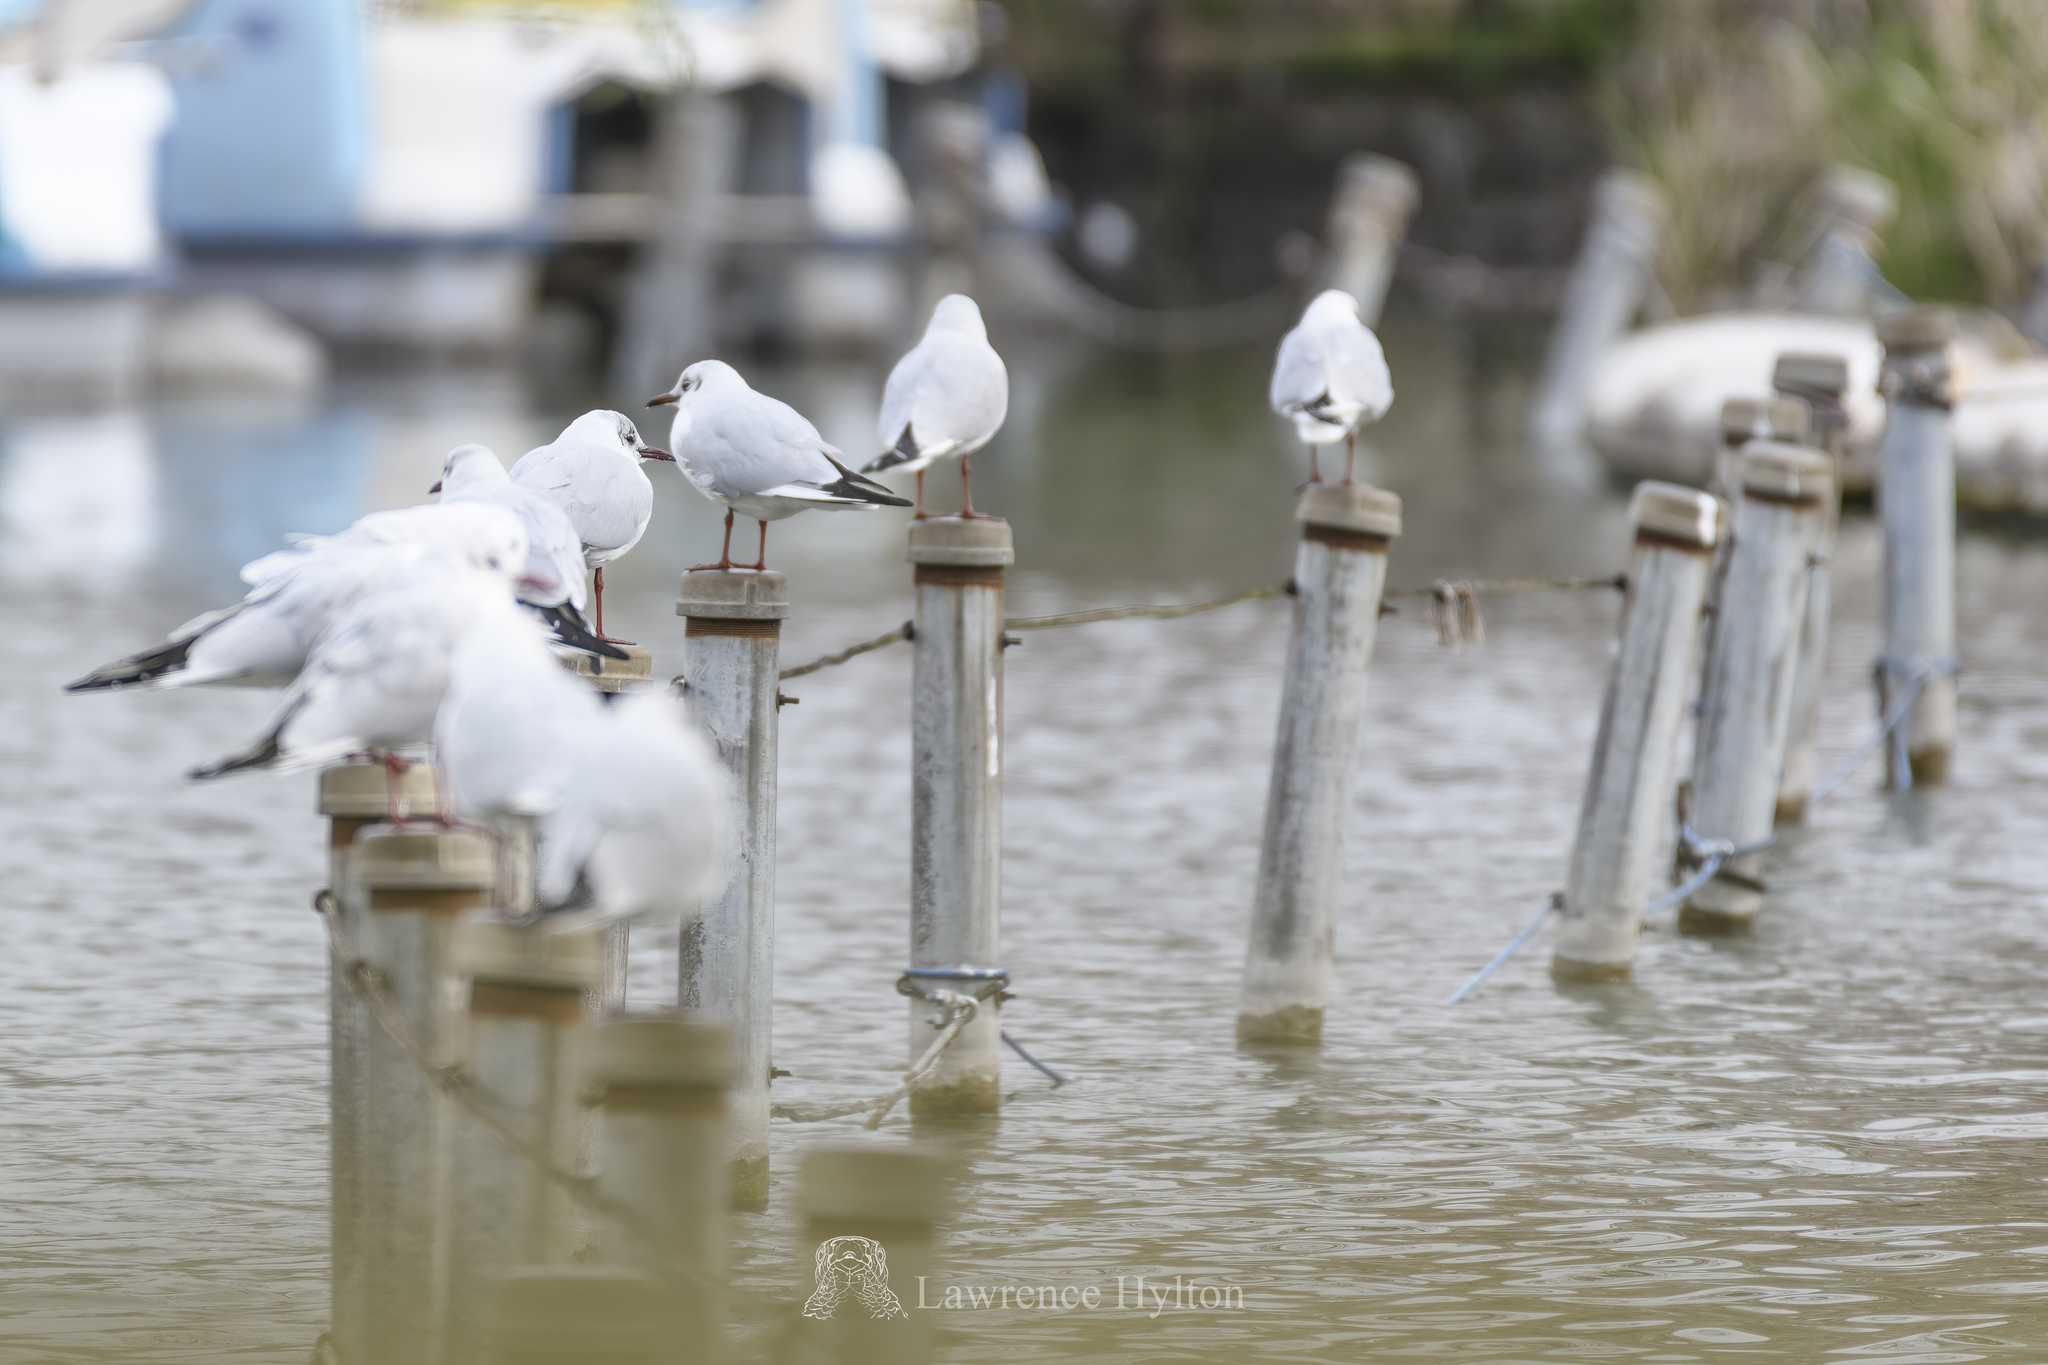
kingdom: Animalia
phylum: Chordata
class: Aves
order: Charadriiformes
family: Laridae
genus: Chroicocephalus
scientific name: Chroicocephalus ridibundus
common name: Black-headed gull
